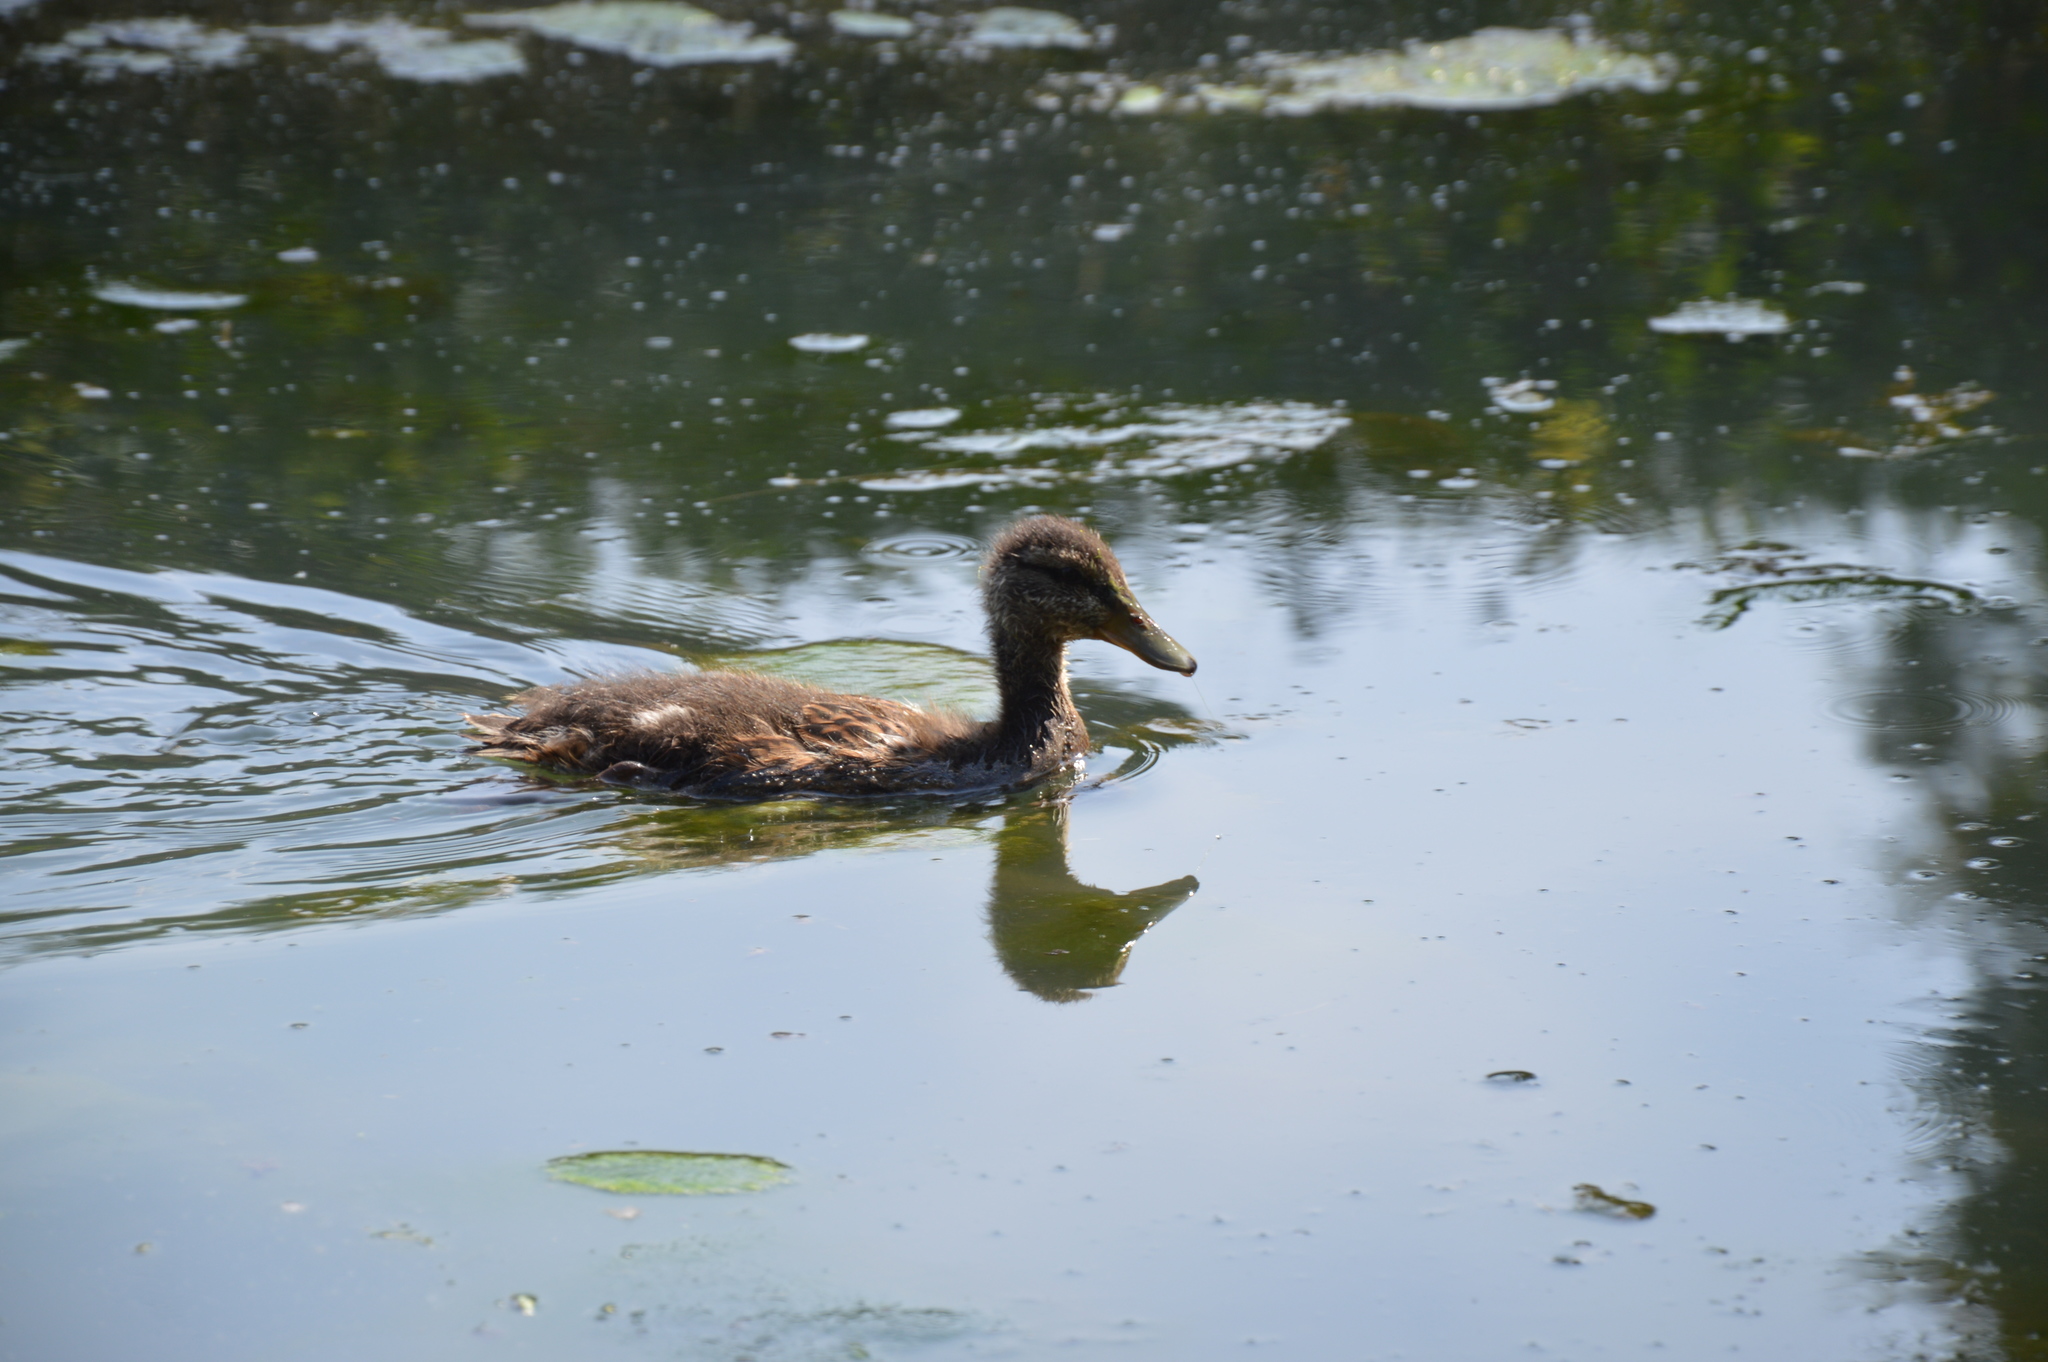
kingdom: Animalia
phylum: Chordata
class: Aves
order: Anseriformes
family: Anatidae
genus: Anas
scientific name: Anas platyrhynchos
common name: Mallard
